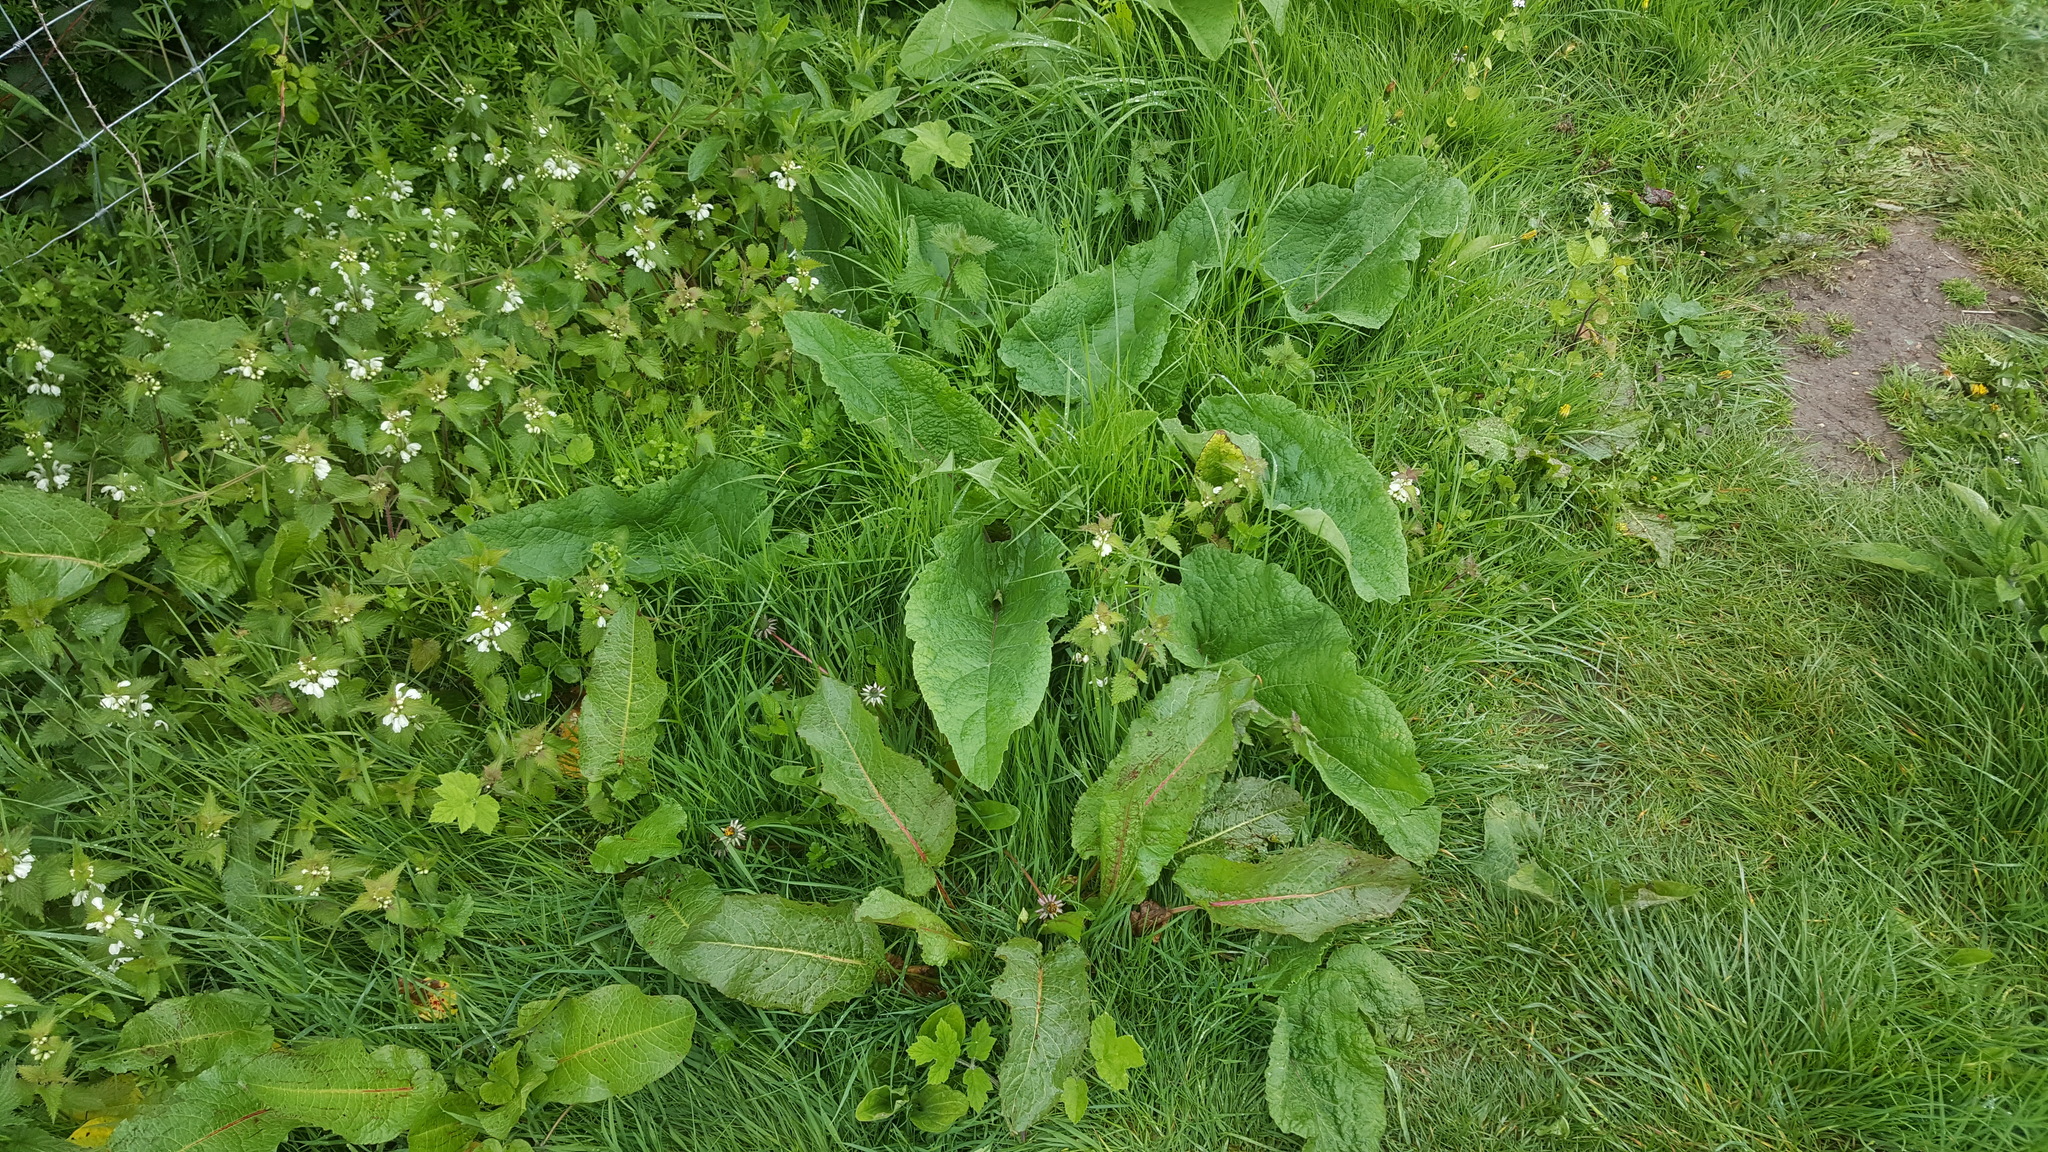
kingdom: Plantae
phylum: Tracheophyta
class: Magnoliopsida
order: Caryophyllales
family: Polygonaceae
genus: Rumex
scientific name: Rumex obtusifolius
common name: Bitter dock
